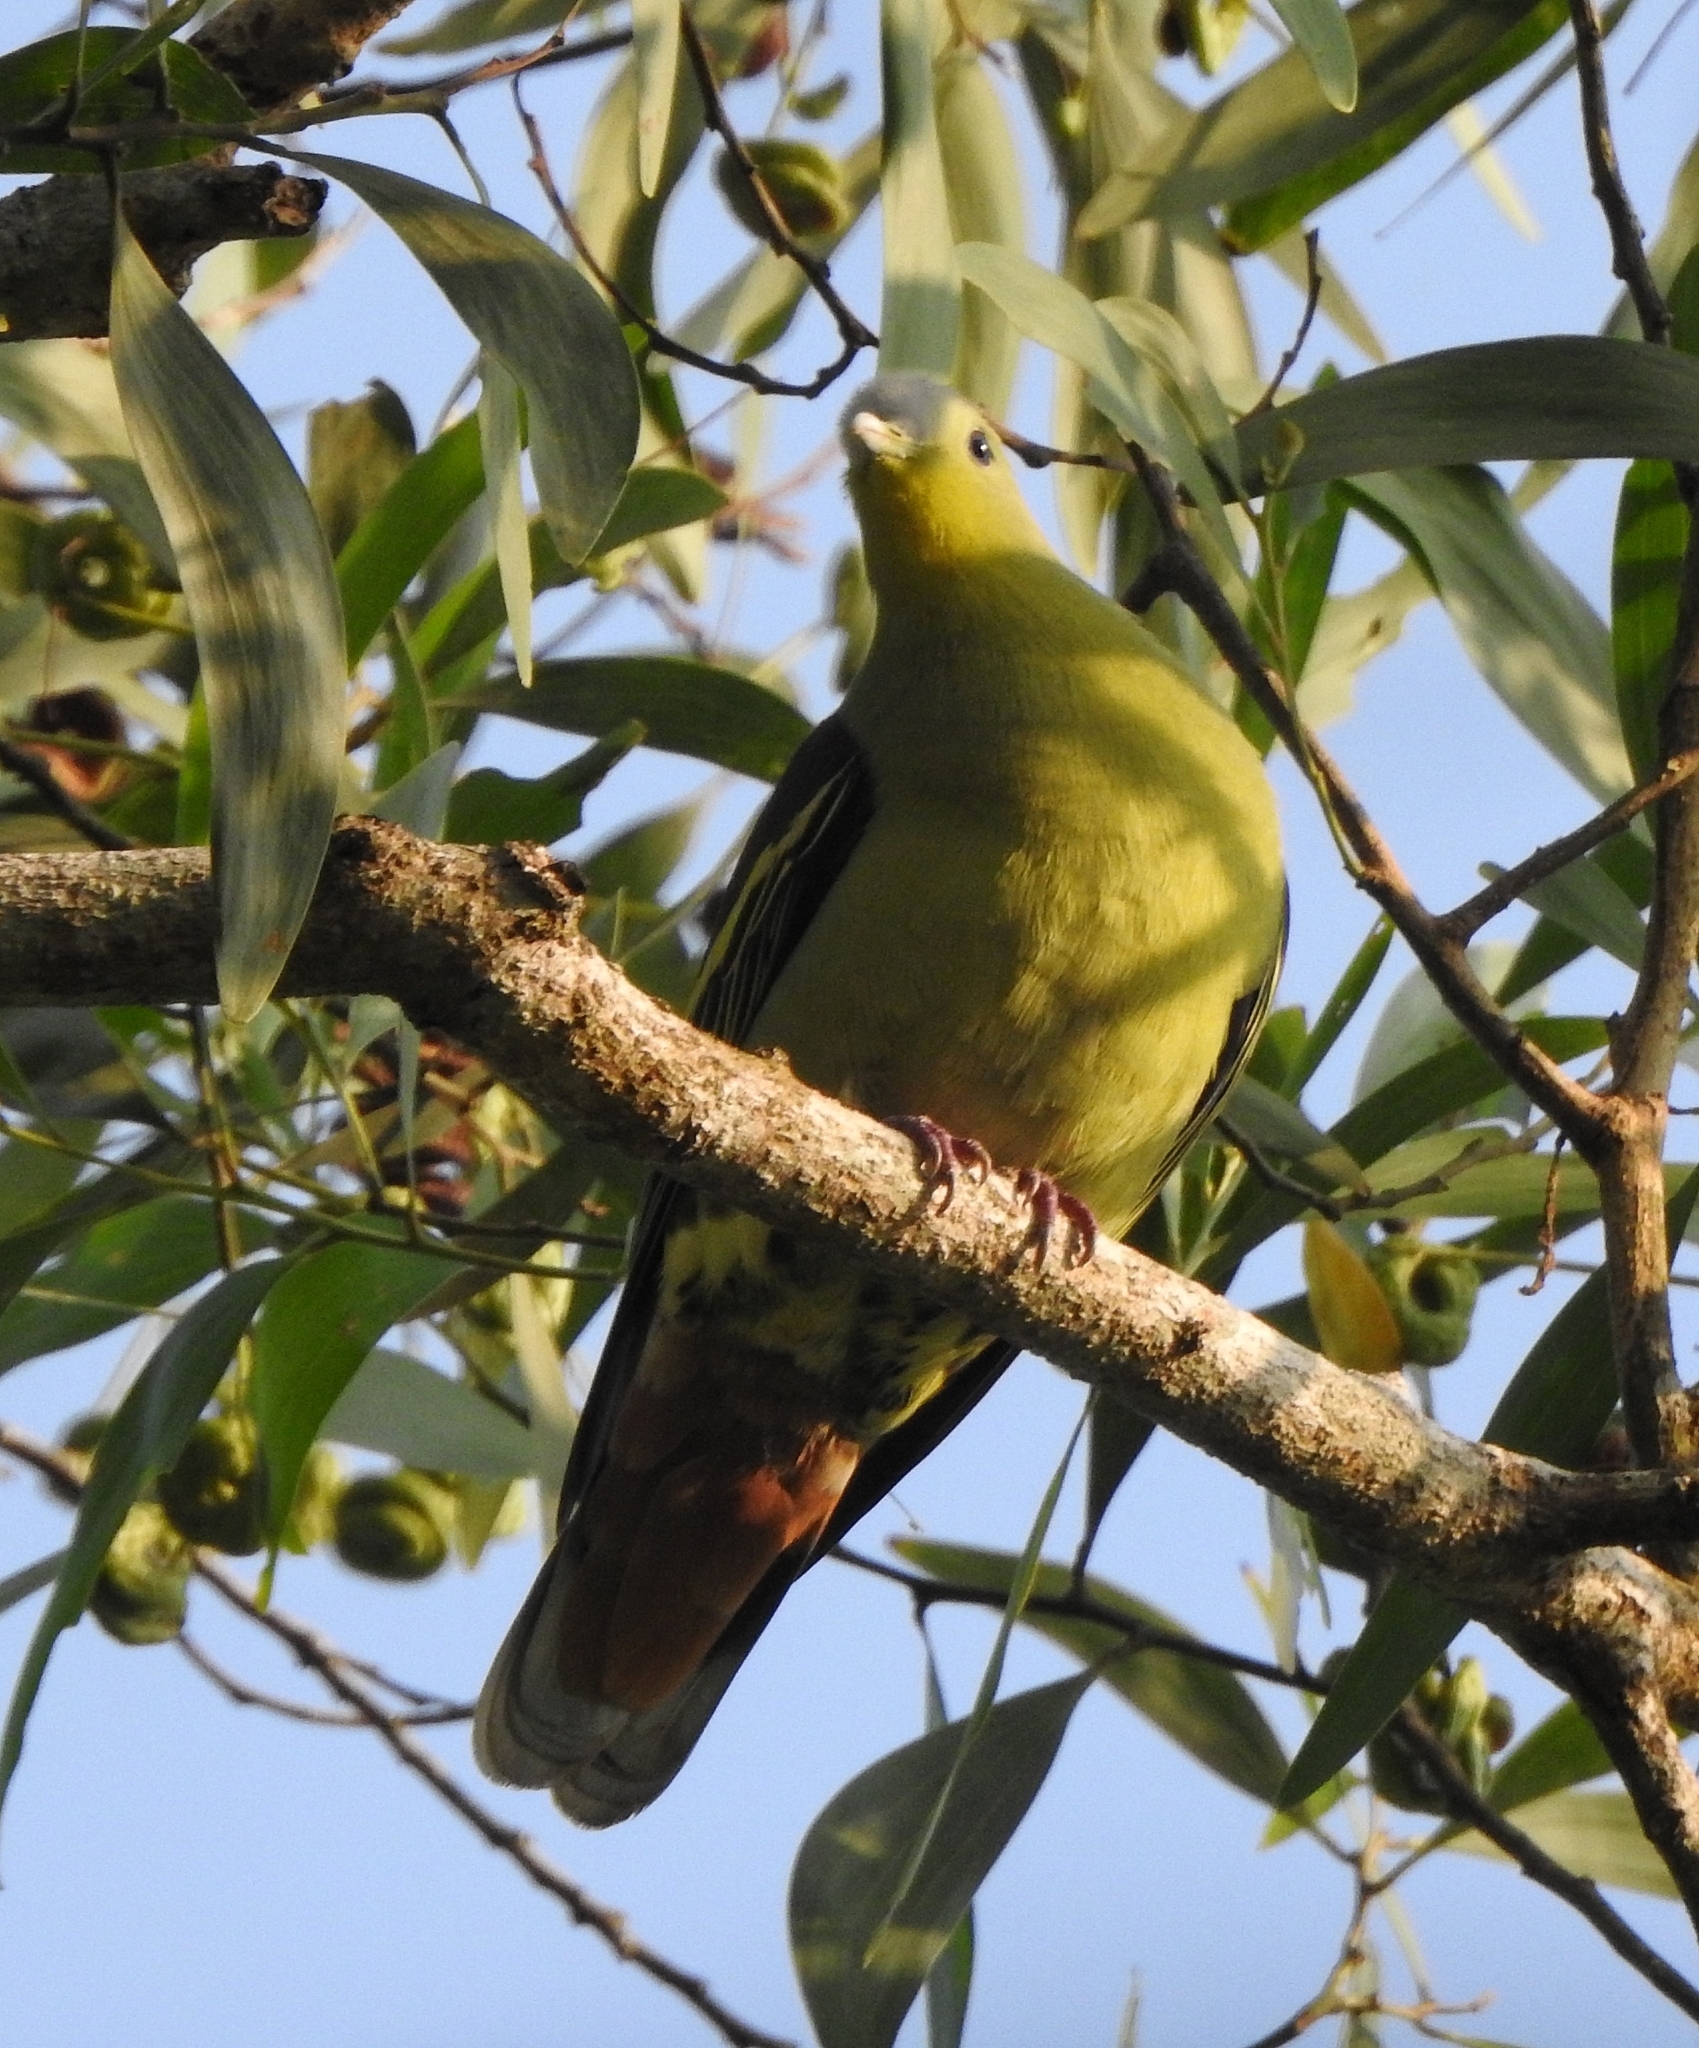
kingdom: Animalia
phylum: Chordata
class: Aves
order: Columbiformes
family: Columbidae
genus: Treron
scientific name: Treron affinis
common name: Grey-fronted green pigeon
